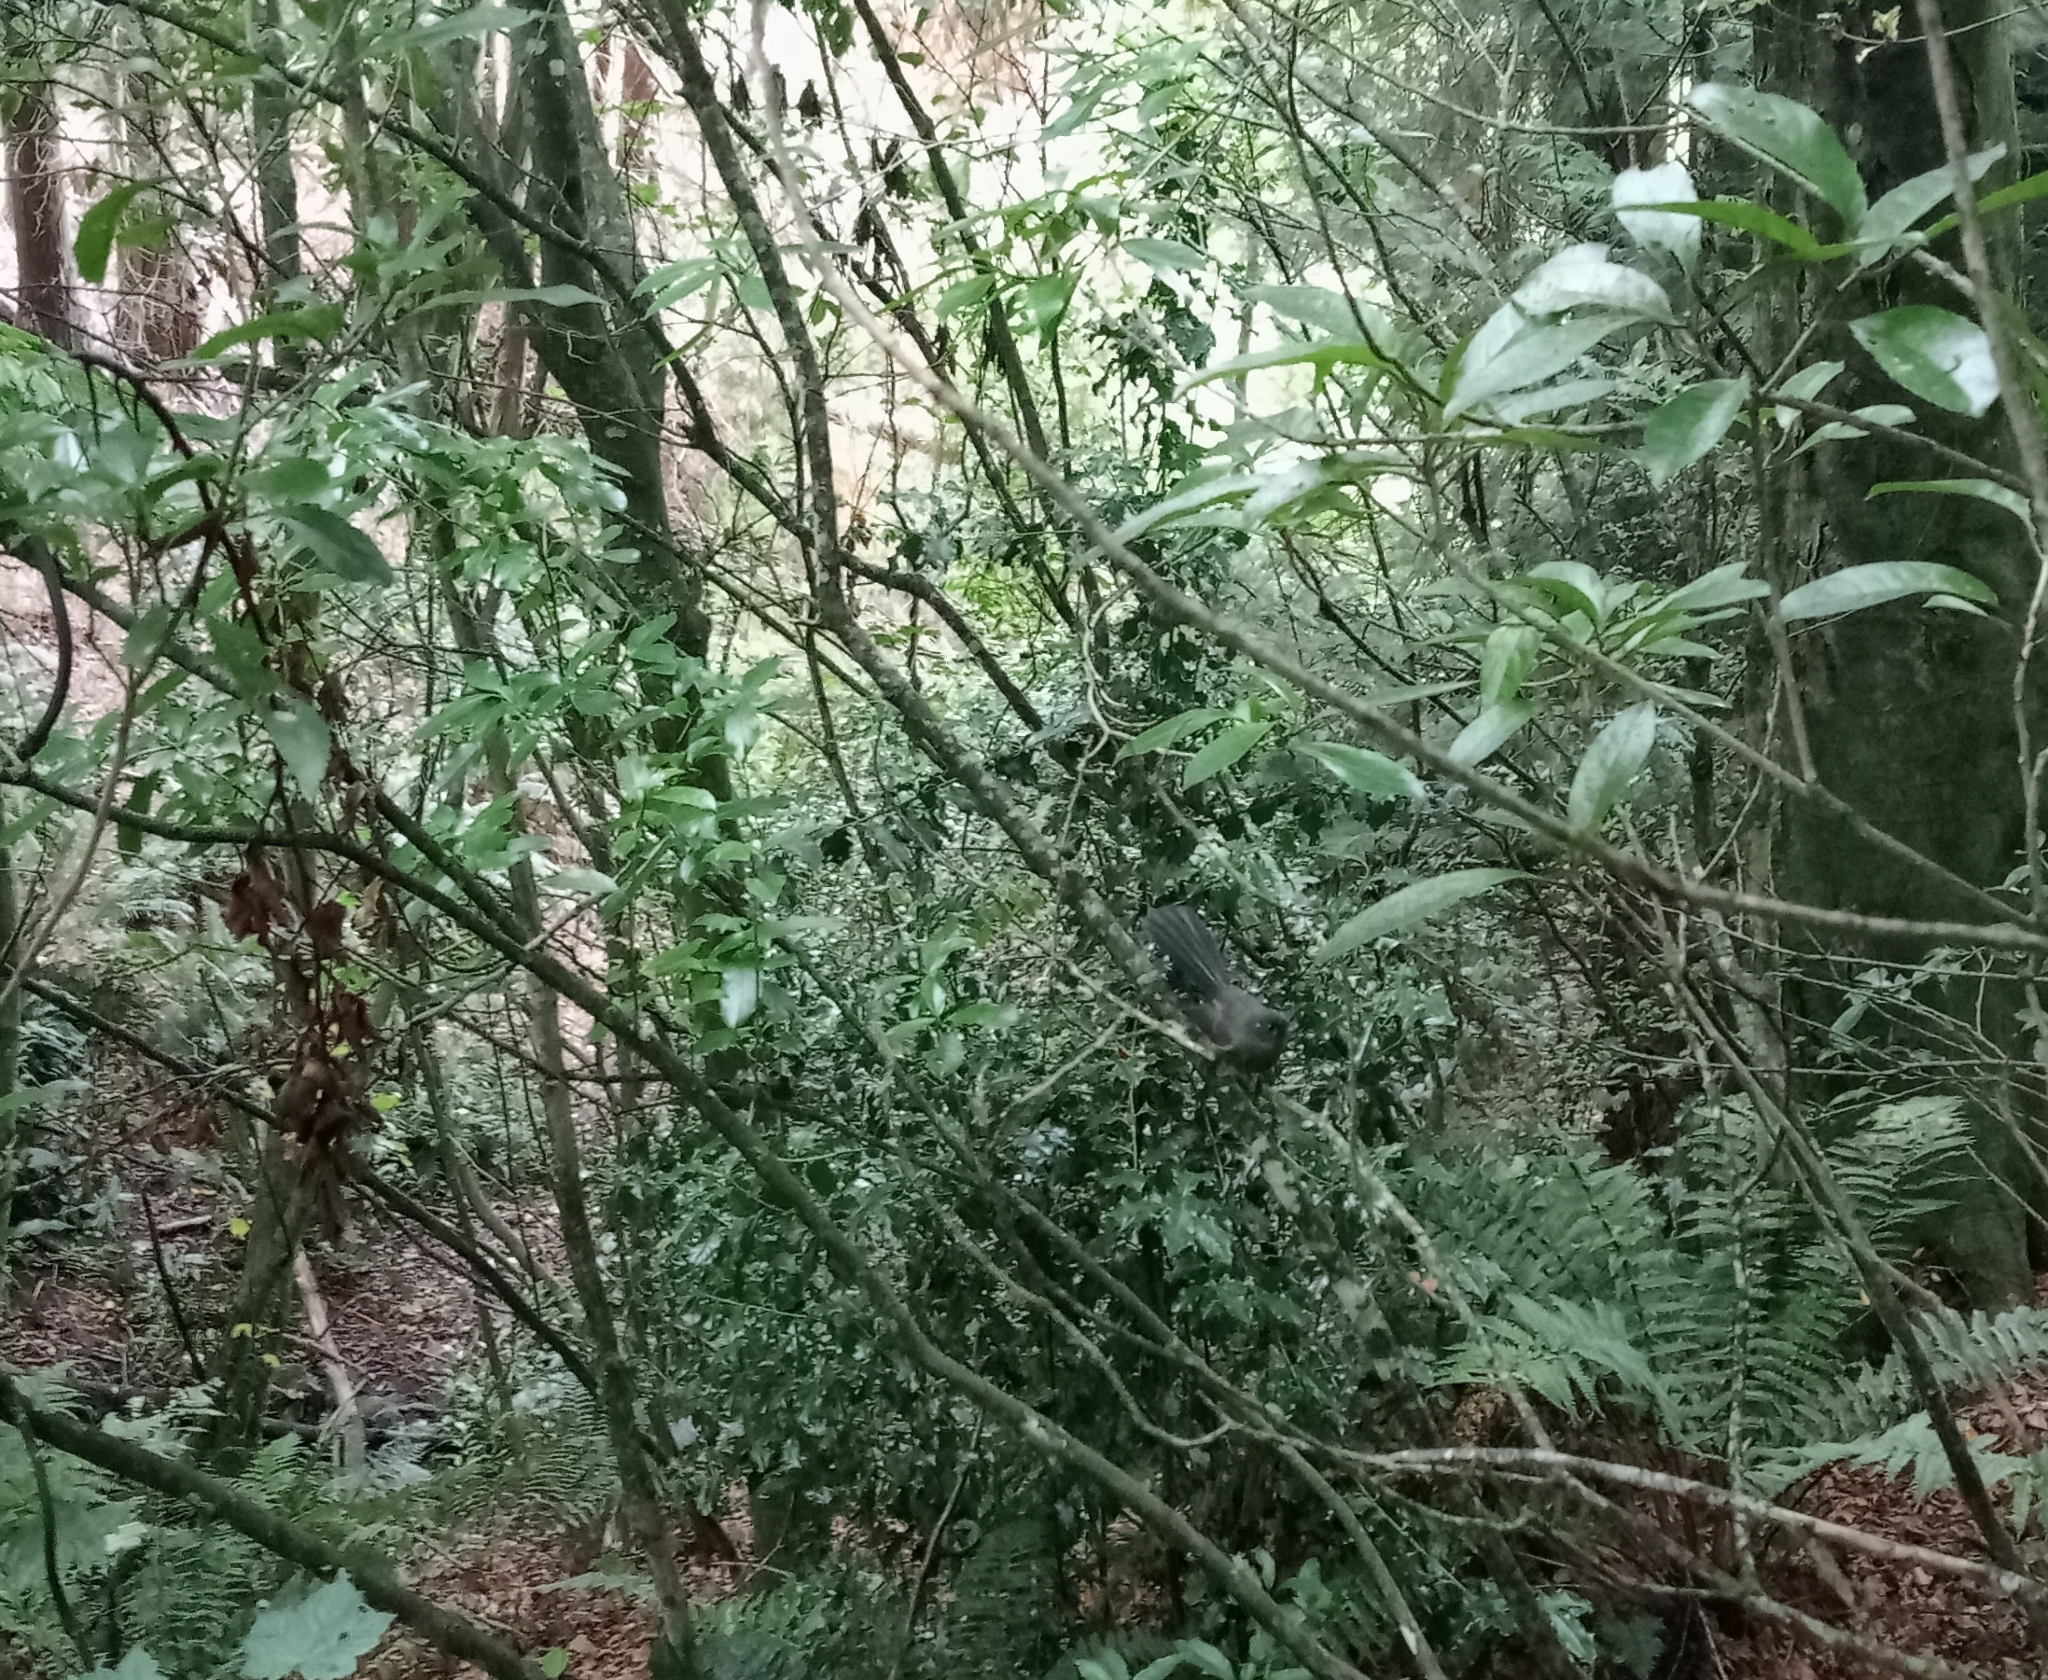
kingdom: Animalia
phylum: Chordata
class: Aves
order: Passeriformes
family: Rhipiduridae
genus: Rhipidura
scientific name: Rhipidura fuliginosa
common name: New zealand fantail
